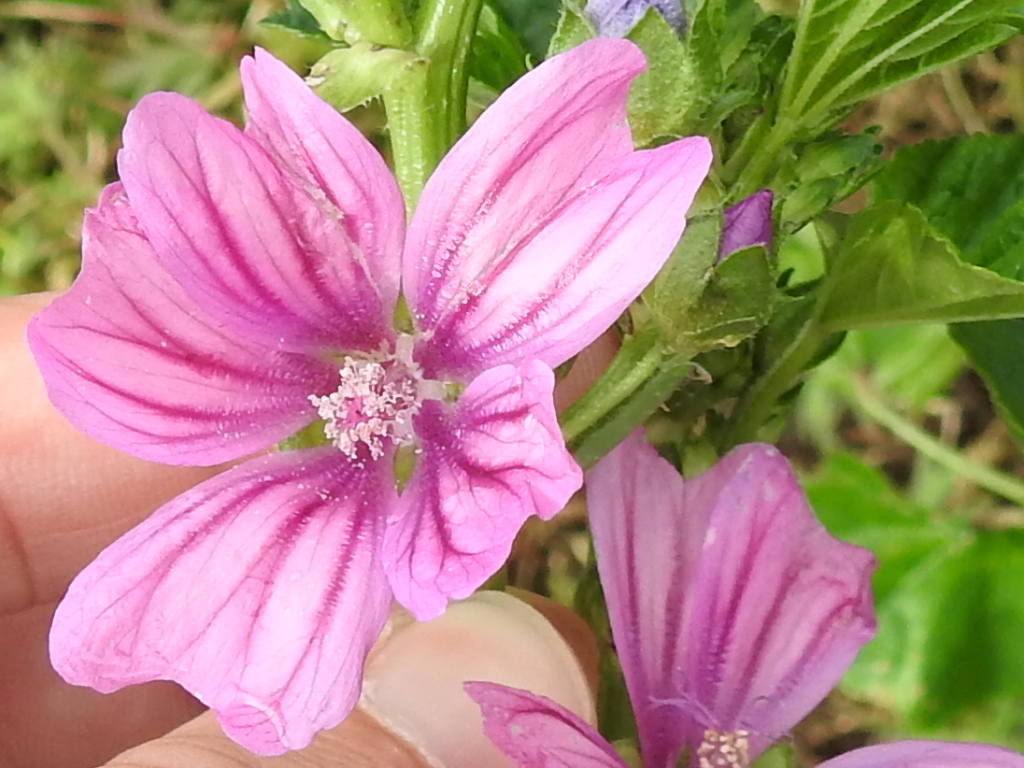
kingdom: Plantae
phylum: Tracheophyta
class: Magnoliopsida
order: Malvales
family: Malvaceae
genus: Malva
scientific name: Malva sylvestris
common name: Common mallow
